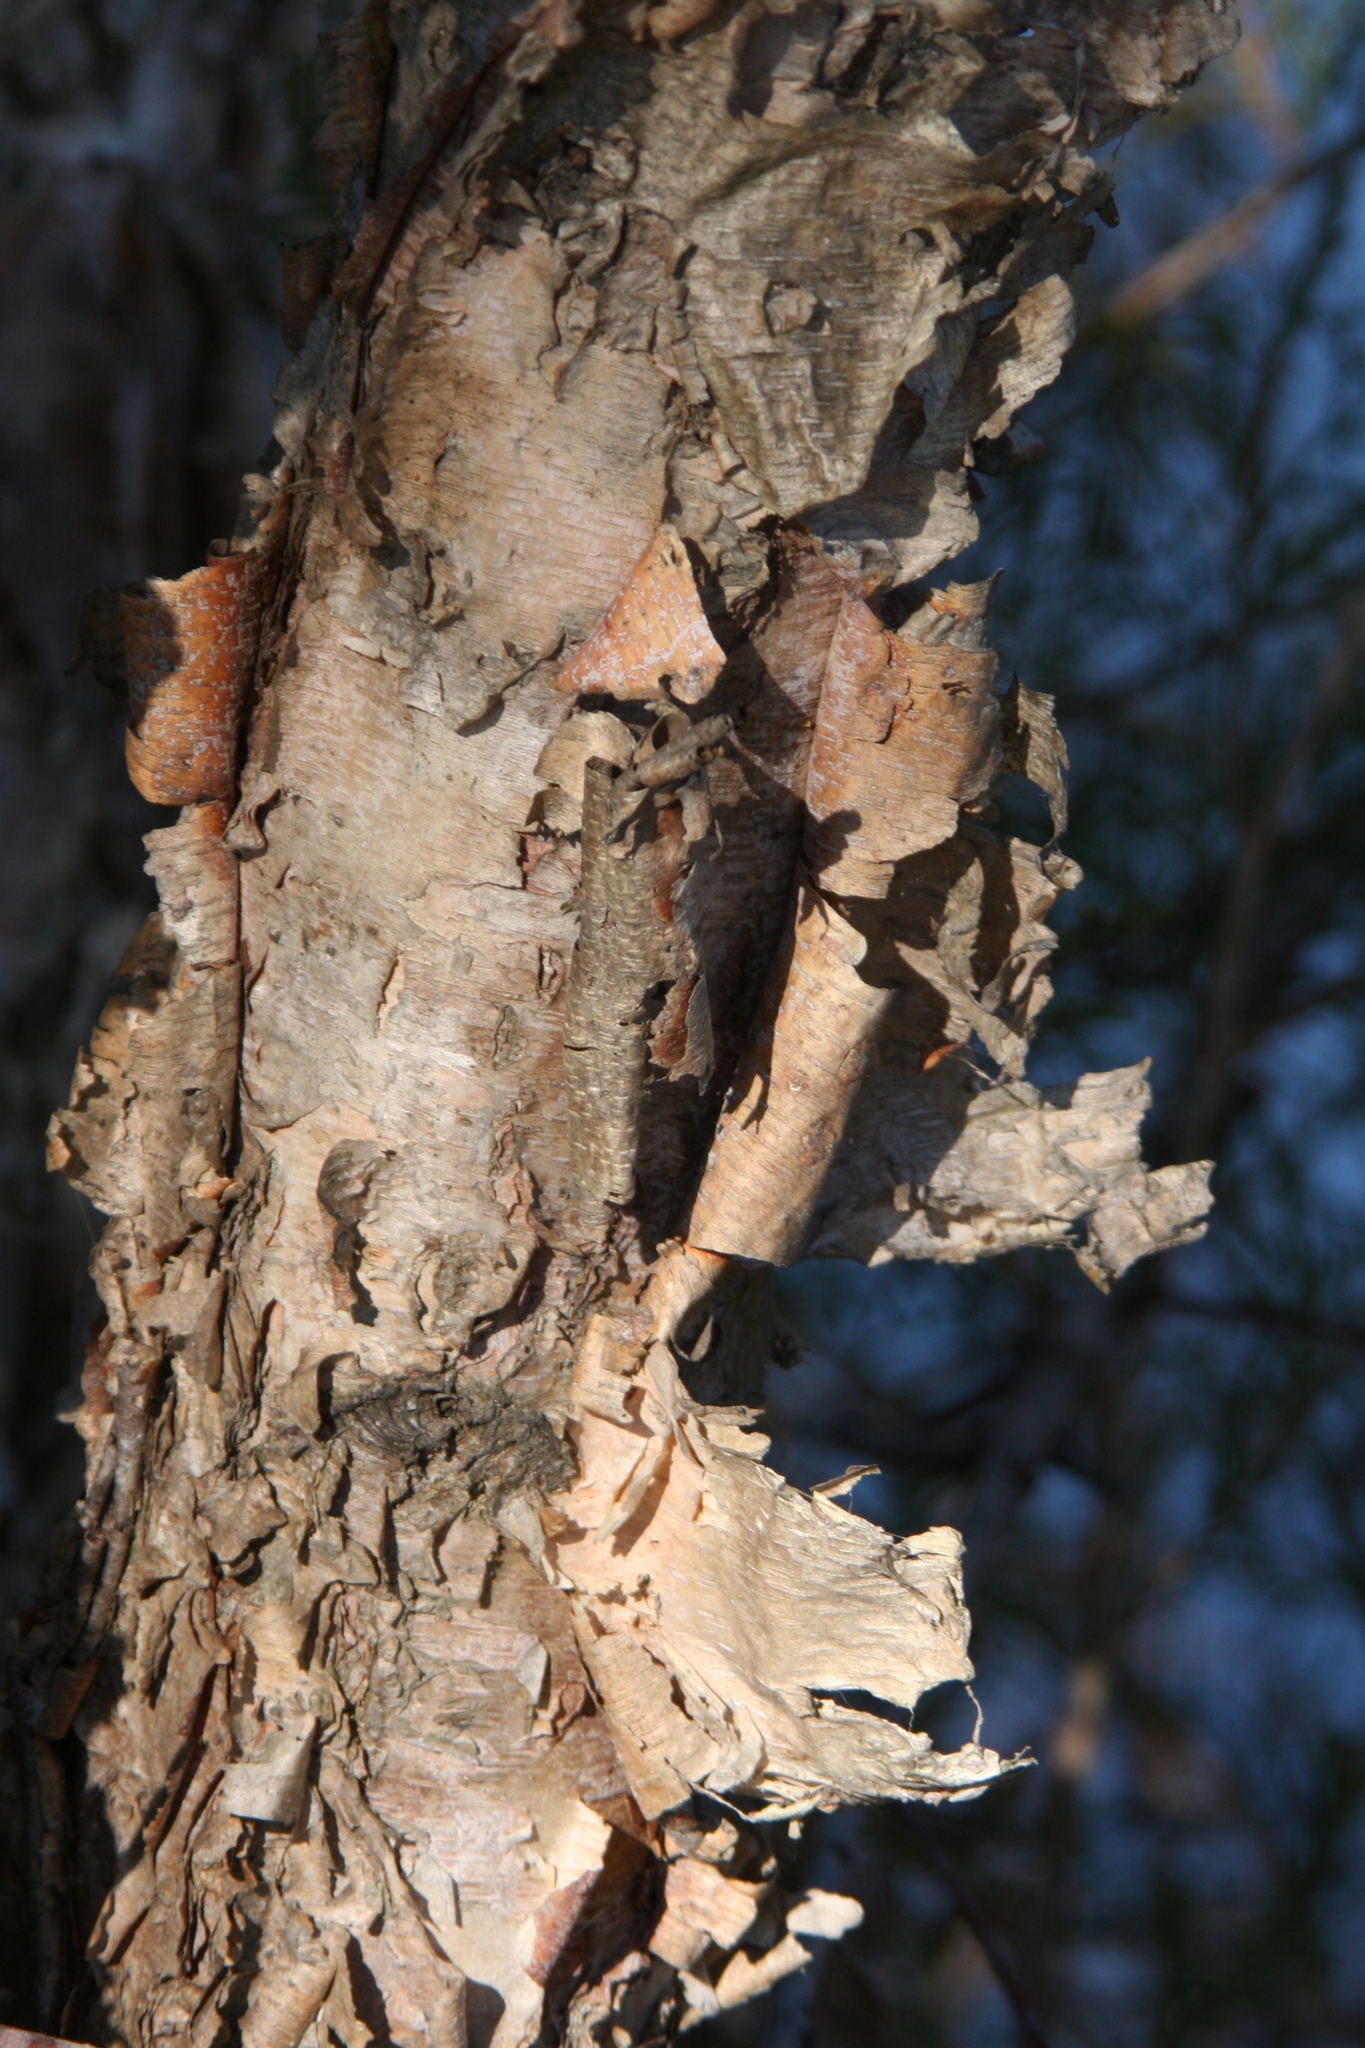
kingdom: Plantae
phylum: Tracheophyta
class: Magnoliopsida
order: Fagales
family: Betulaceae
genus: Betula
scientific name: Betula nigra
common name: Black birch
